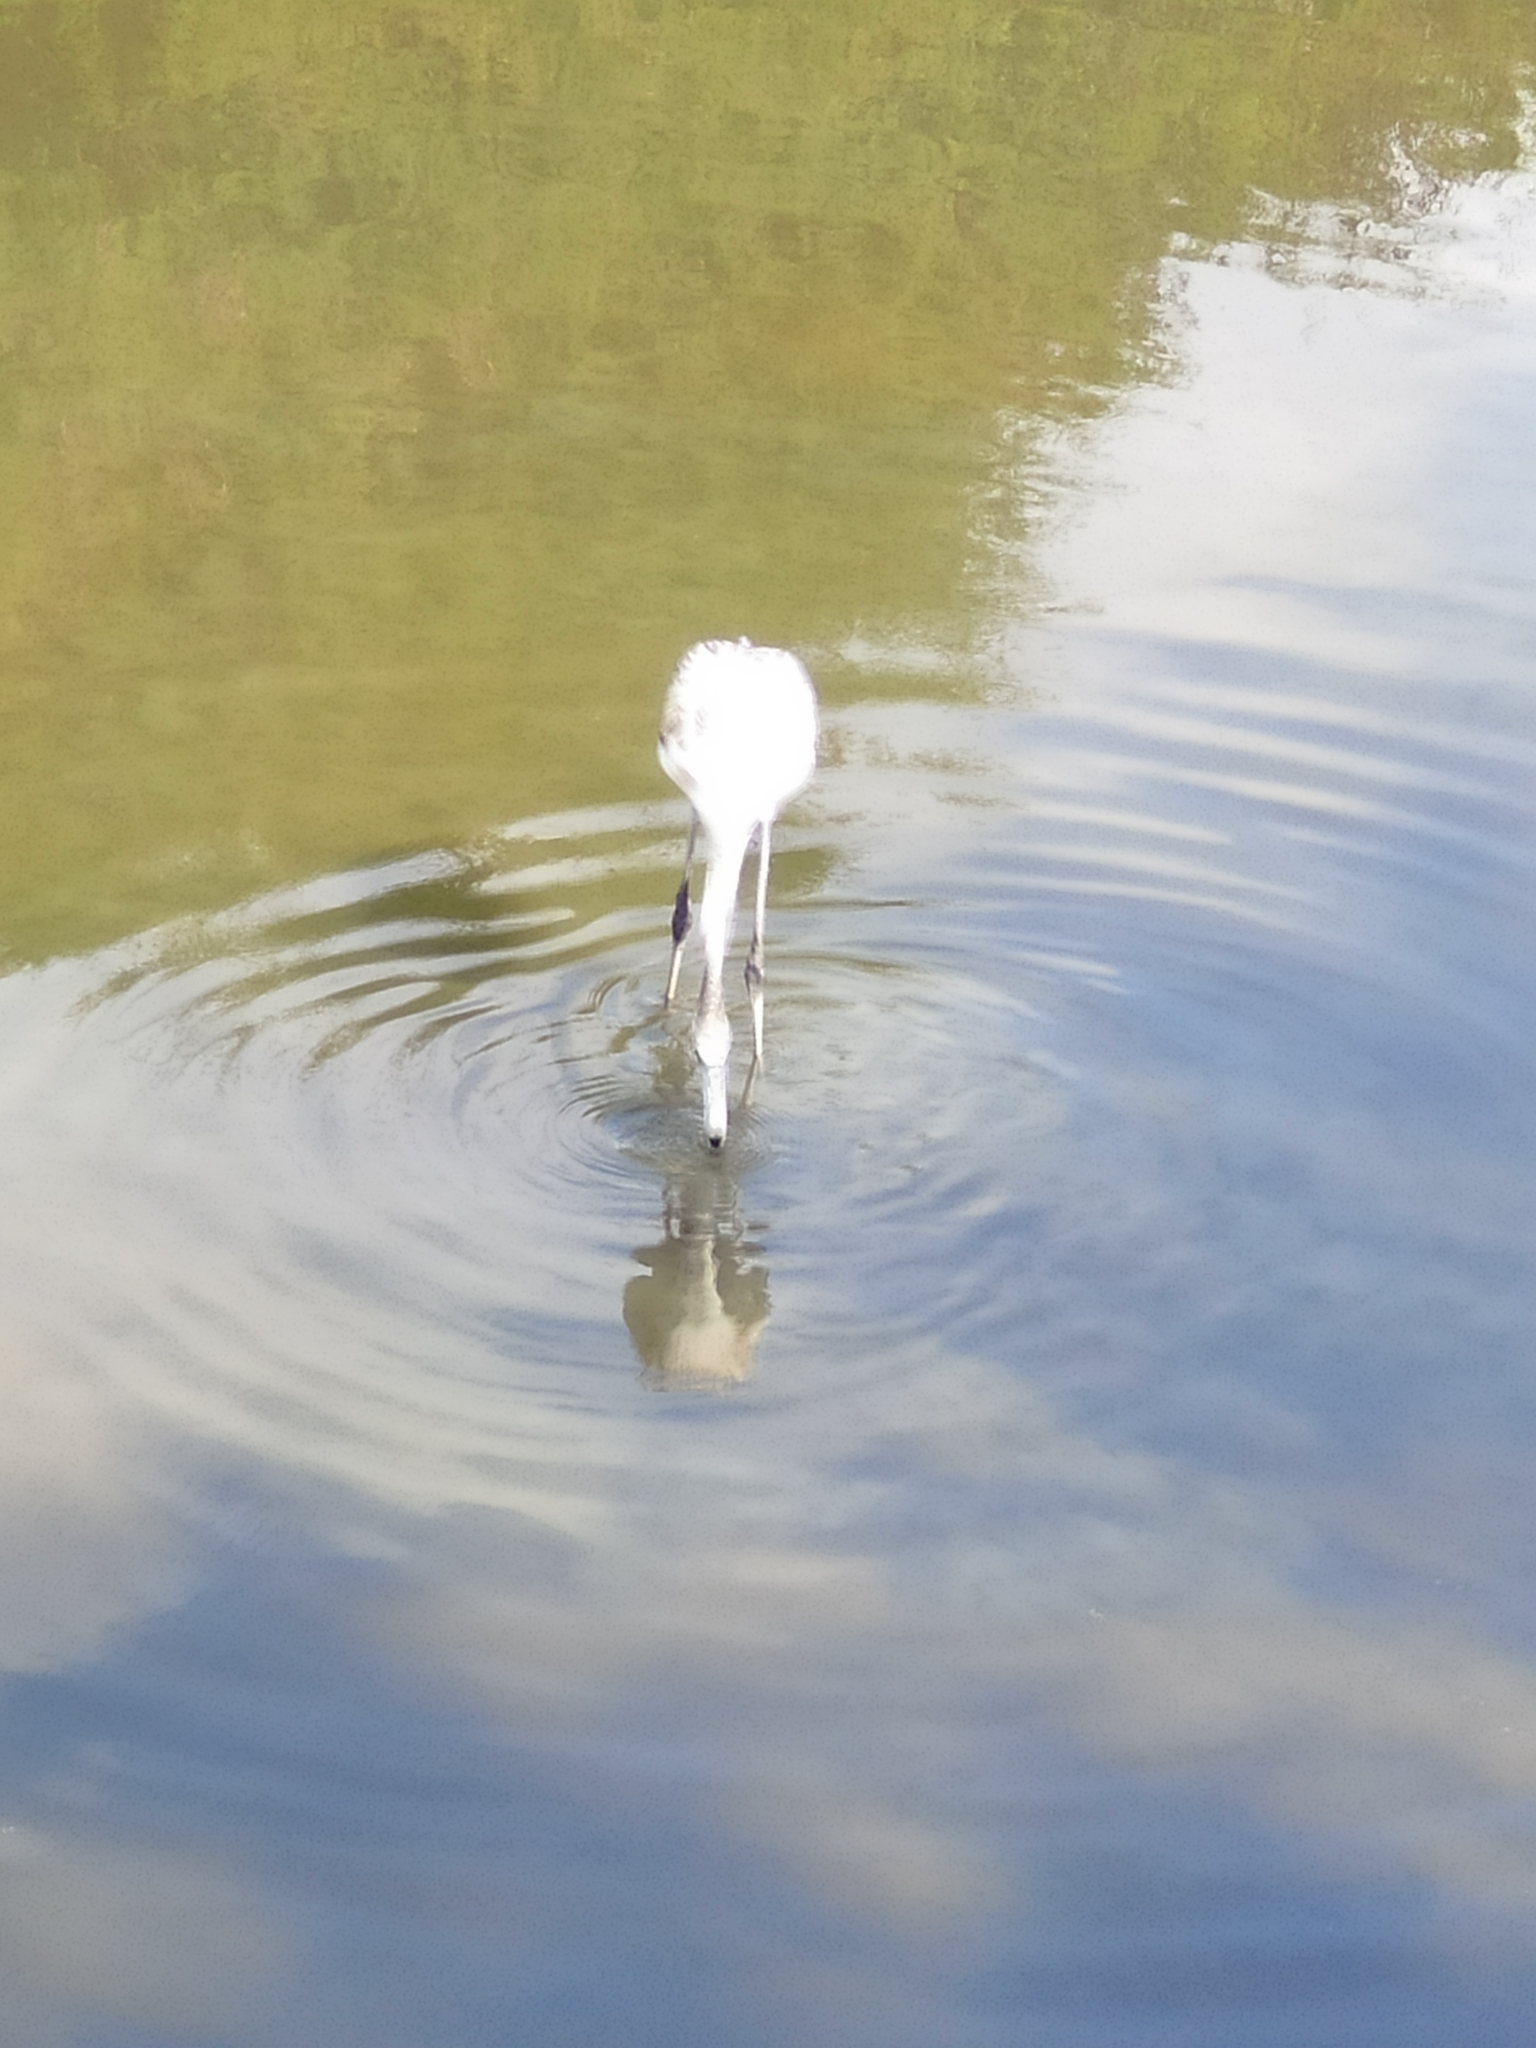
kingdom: Animalia
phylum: Chordata
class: Aves
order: Phoenicopteriformes
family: Phoenicopteridae
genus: Phoenicopterus
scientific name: Phoenicopterus roseus
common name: Greater flamingo
